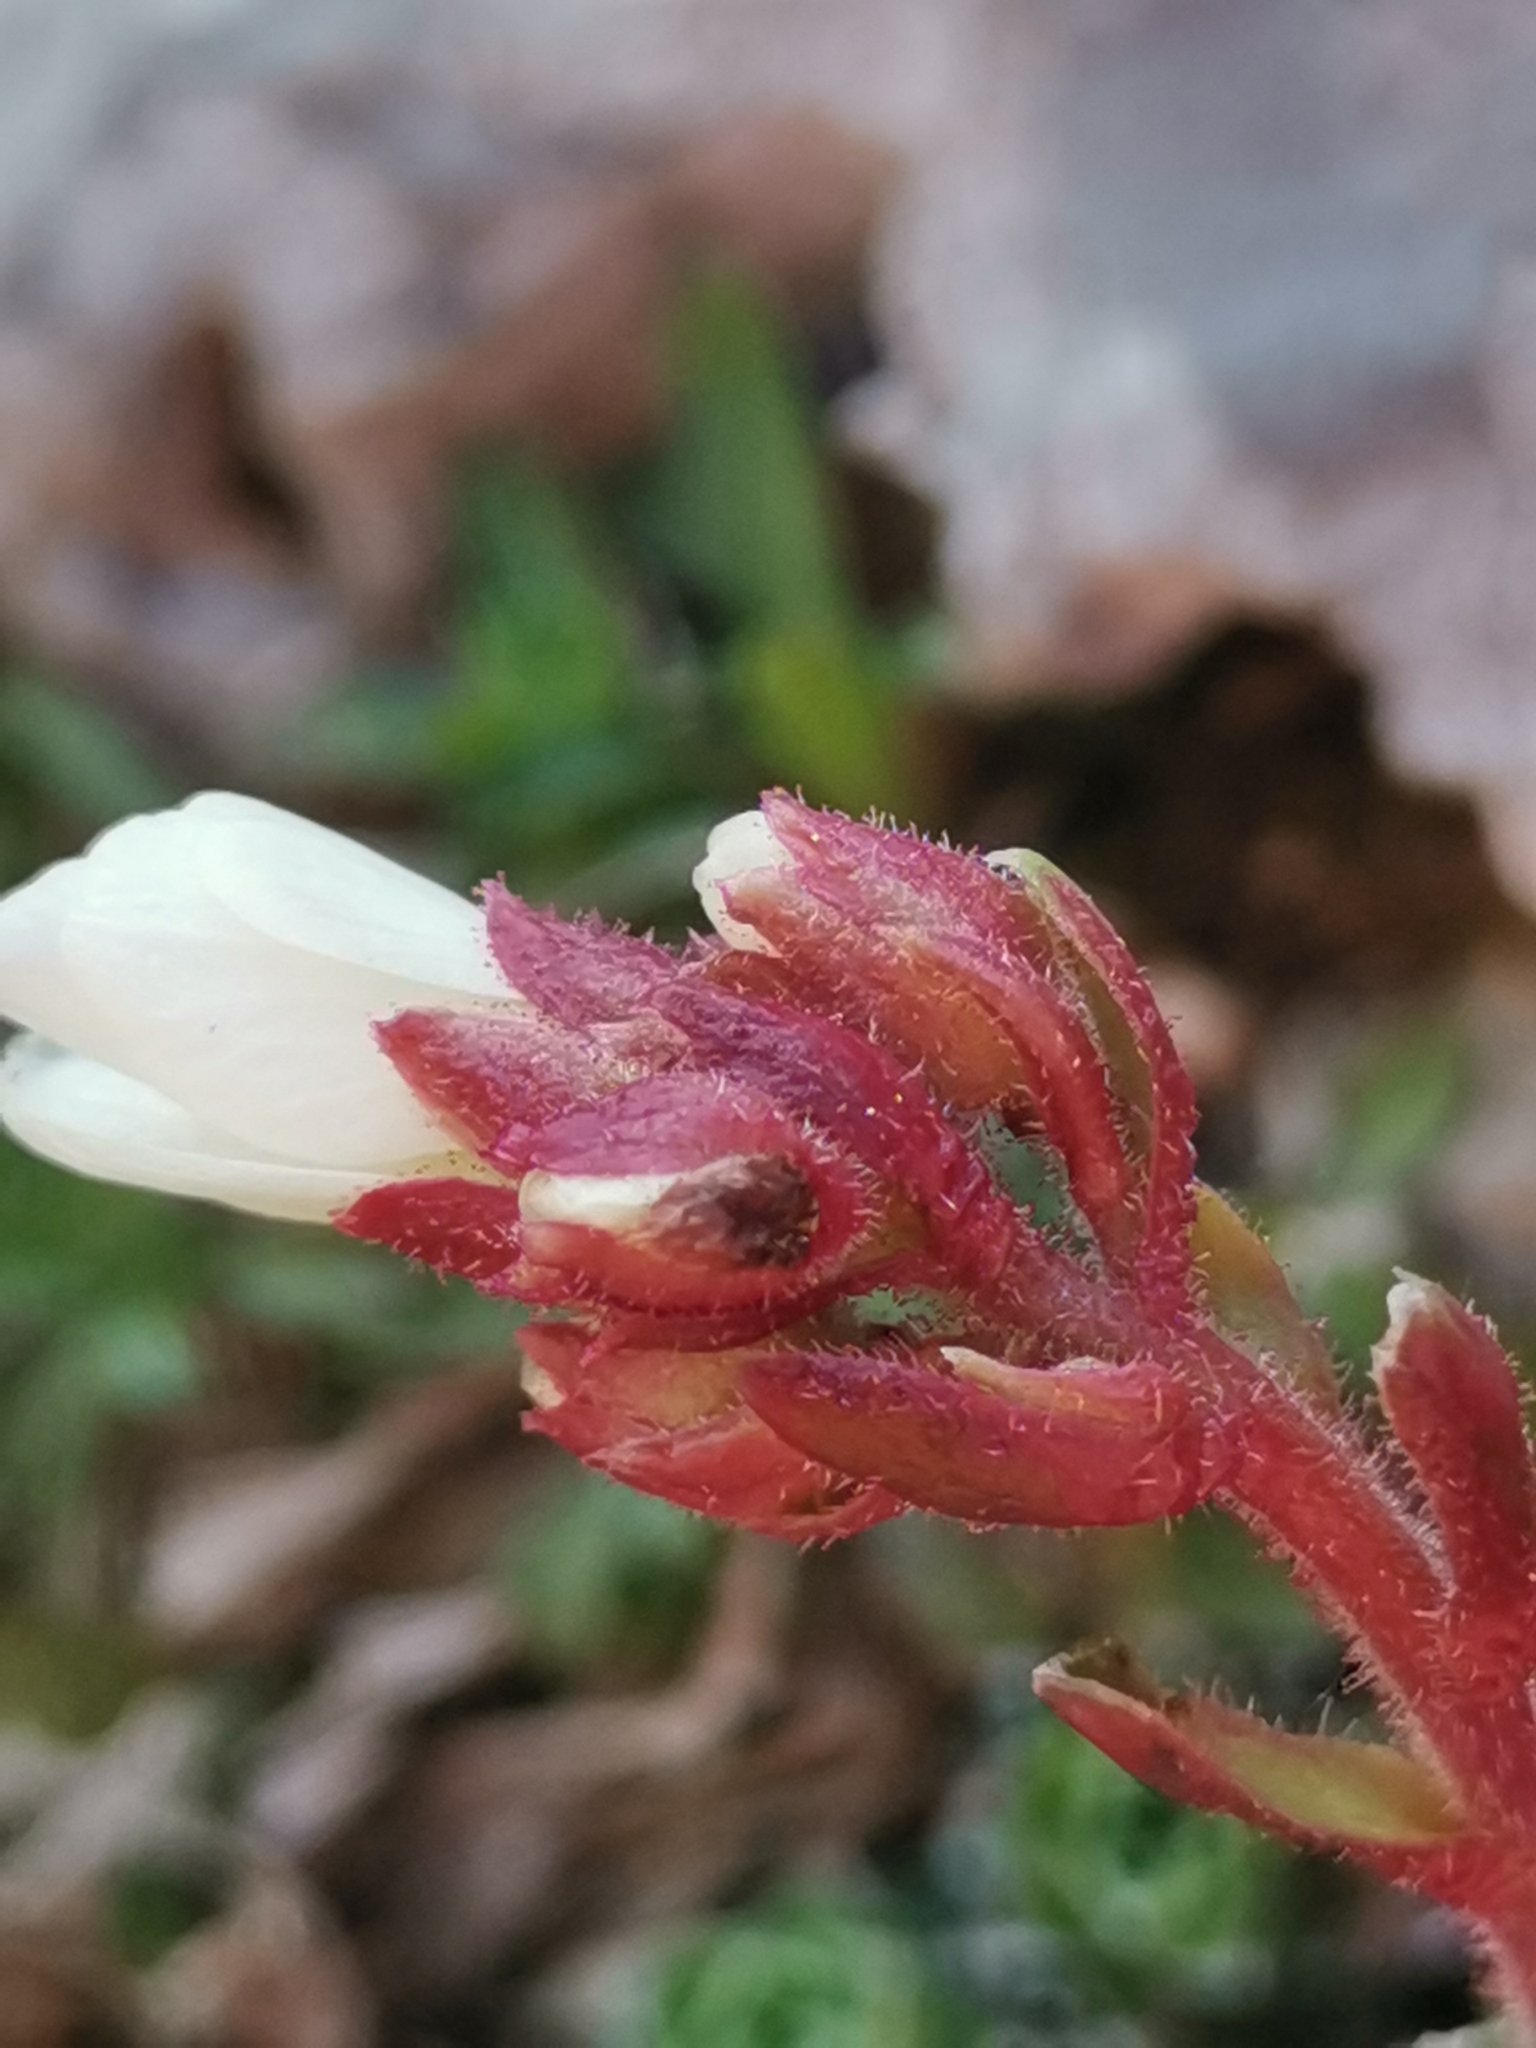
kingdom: Plantae
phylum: Tracheophyta
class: Magnoliopsida
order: Saxifragales
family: Saxifragaceae
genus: Saxifraga
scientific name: Saxifraga marginata
